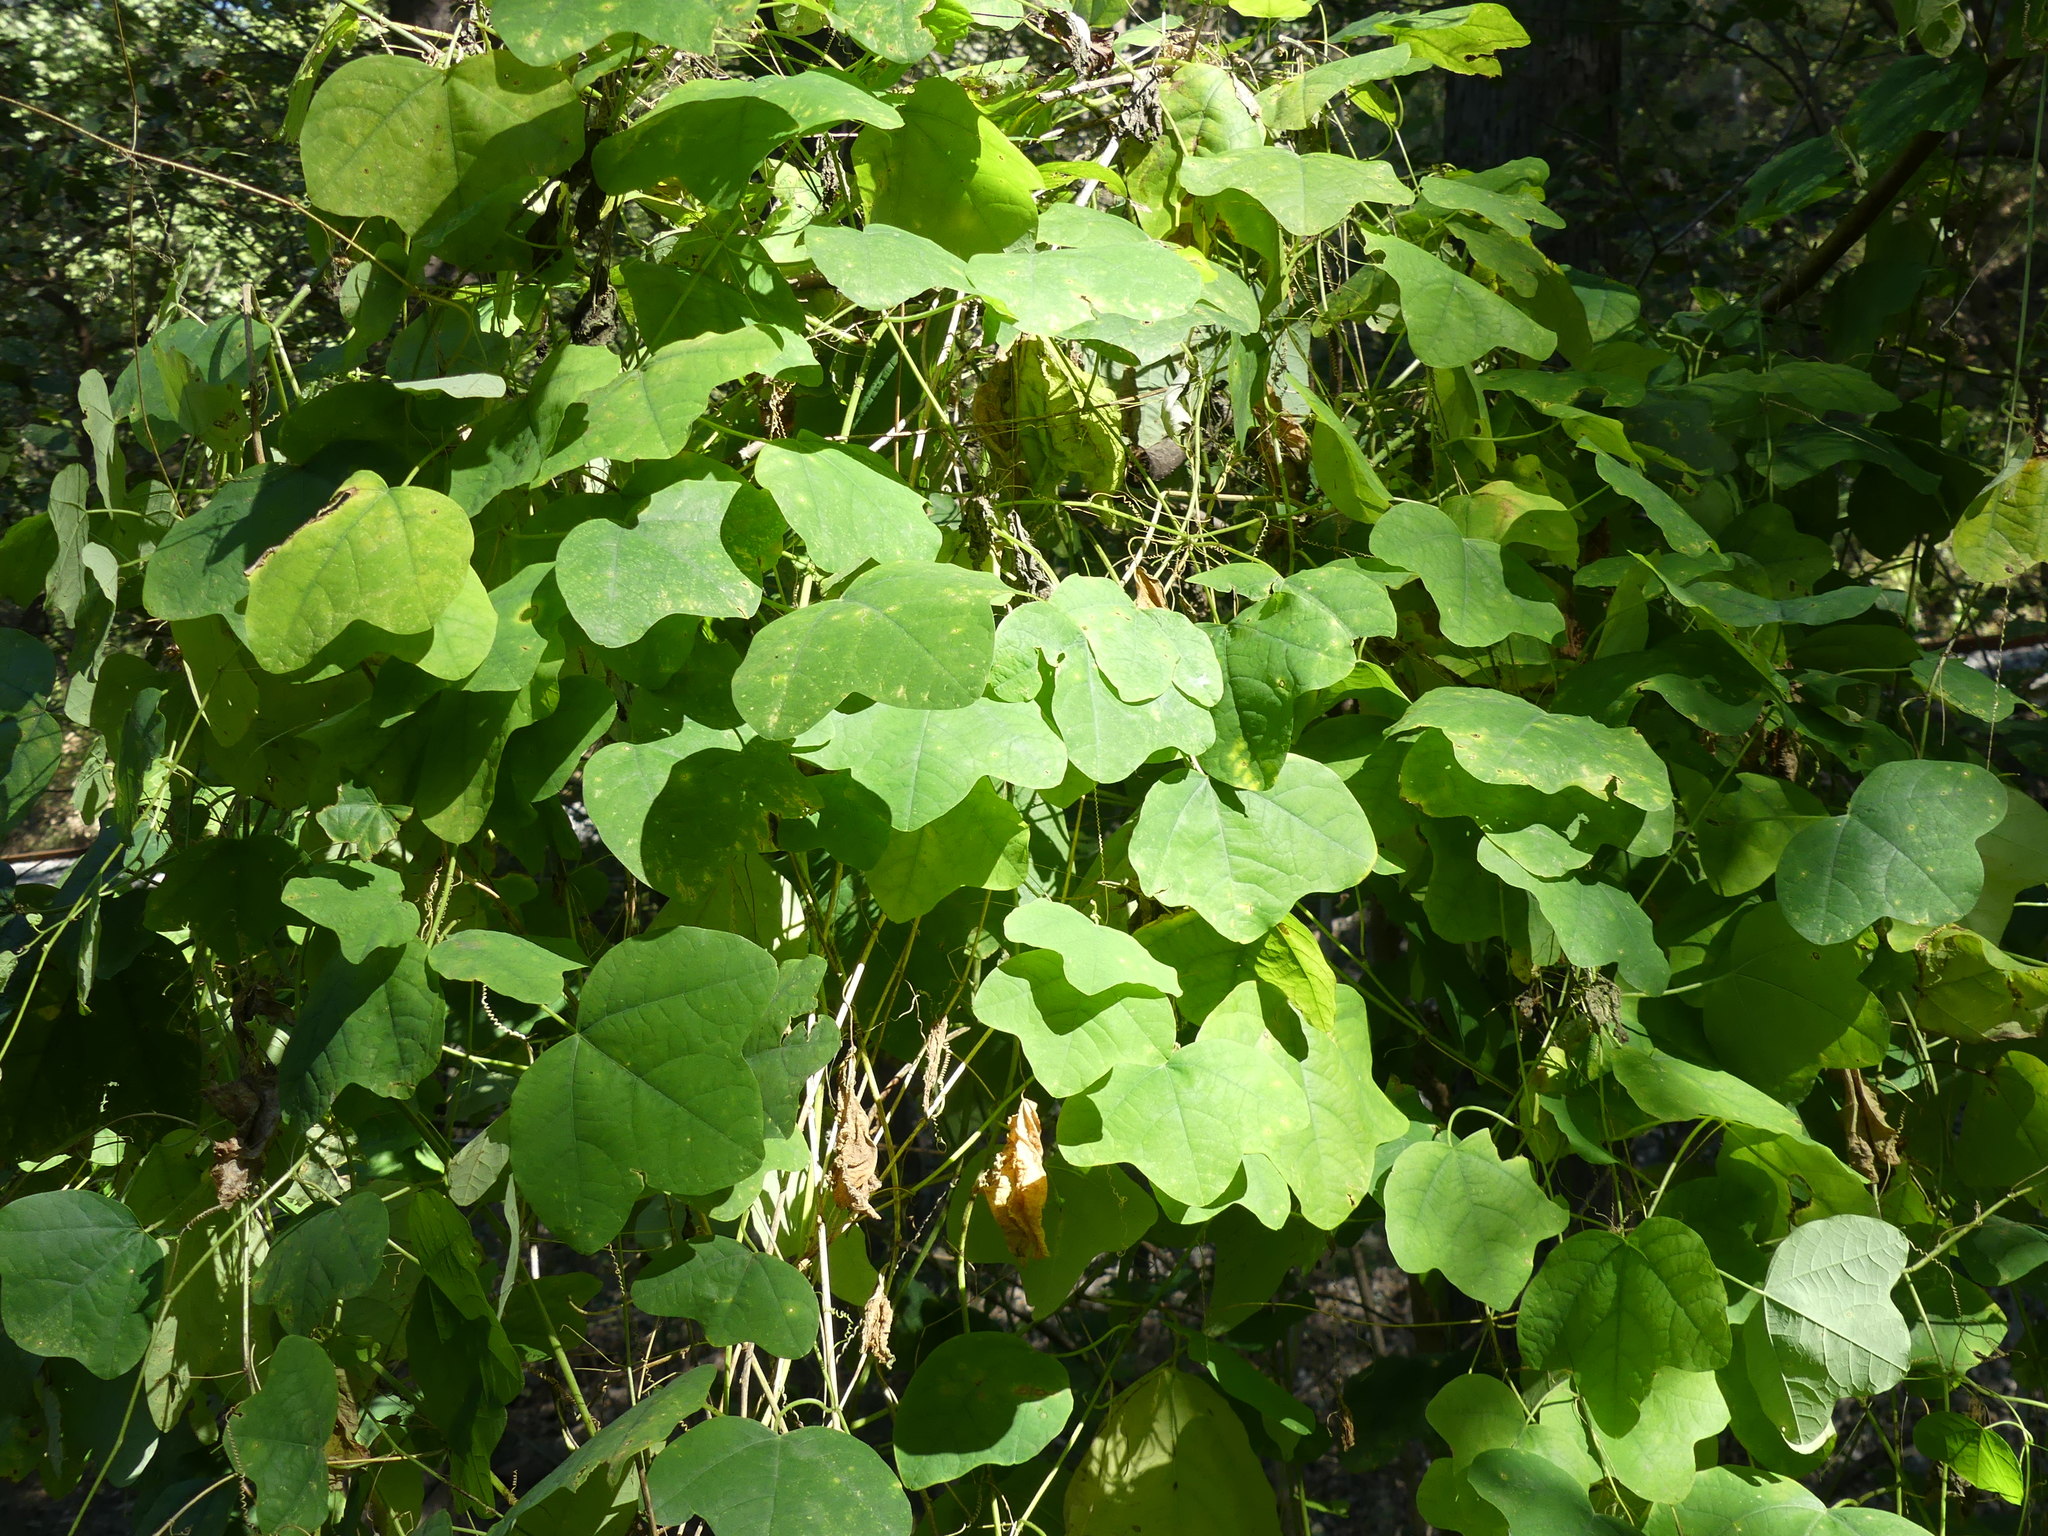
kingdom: Plantae
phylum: Tracheophyta
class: Magnoliopsida
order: Malpighiales
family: Passifloraceae
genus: Passiflora
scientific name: Passiflora lutea
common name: Yellow passionflower
